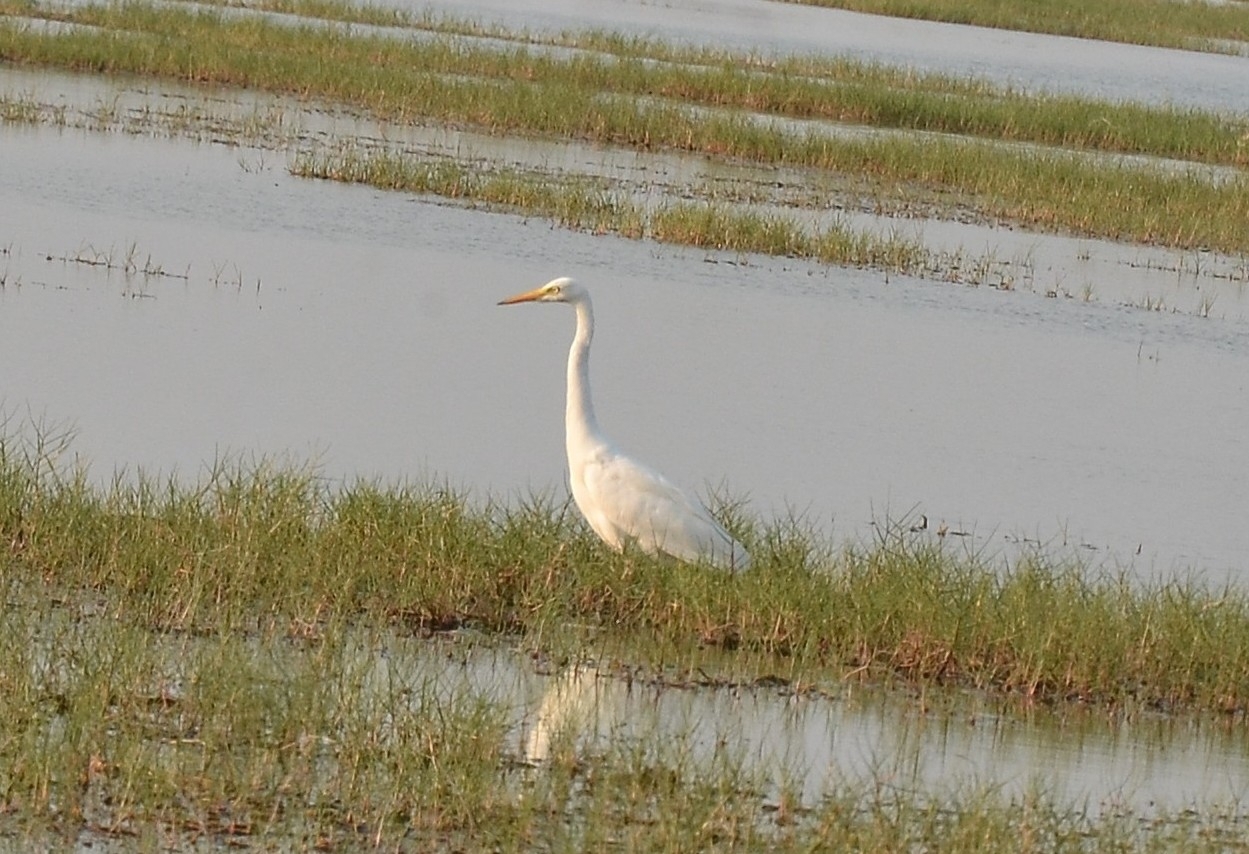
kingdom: Animalia
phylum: Chordata
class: Aves
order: Pelecaniformes
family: Ardeidae
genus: Egretta
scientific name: Egretta intermedia
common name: Intermediate egret
